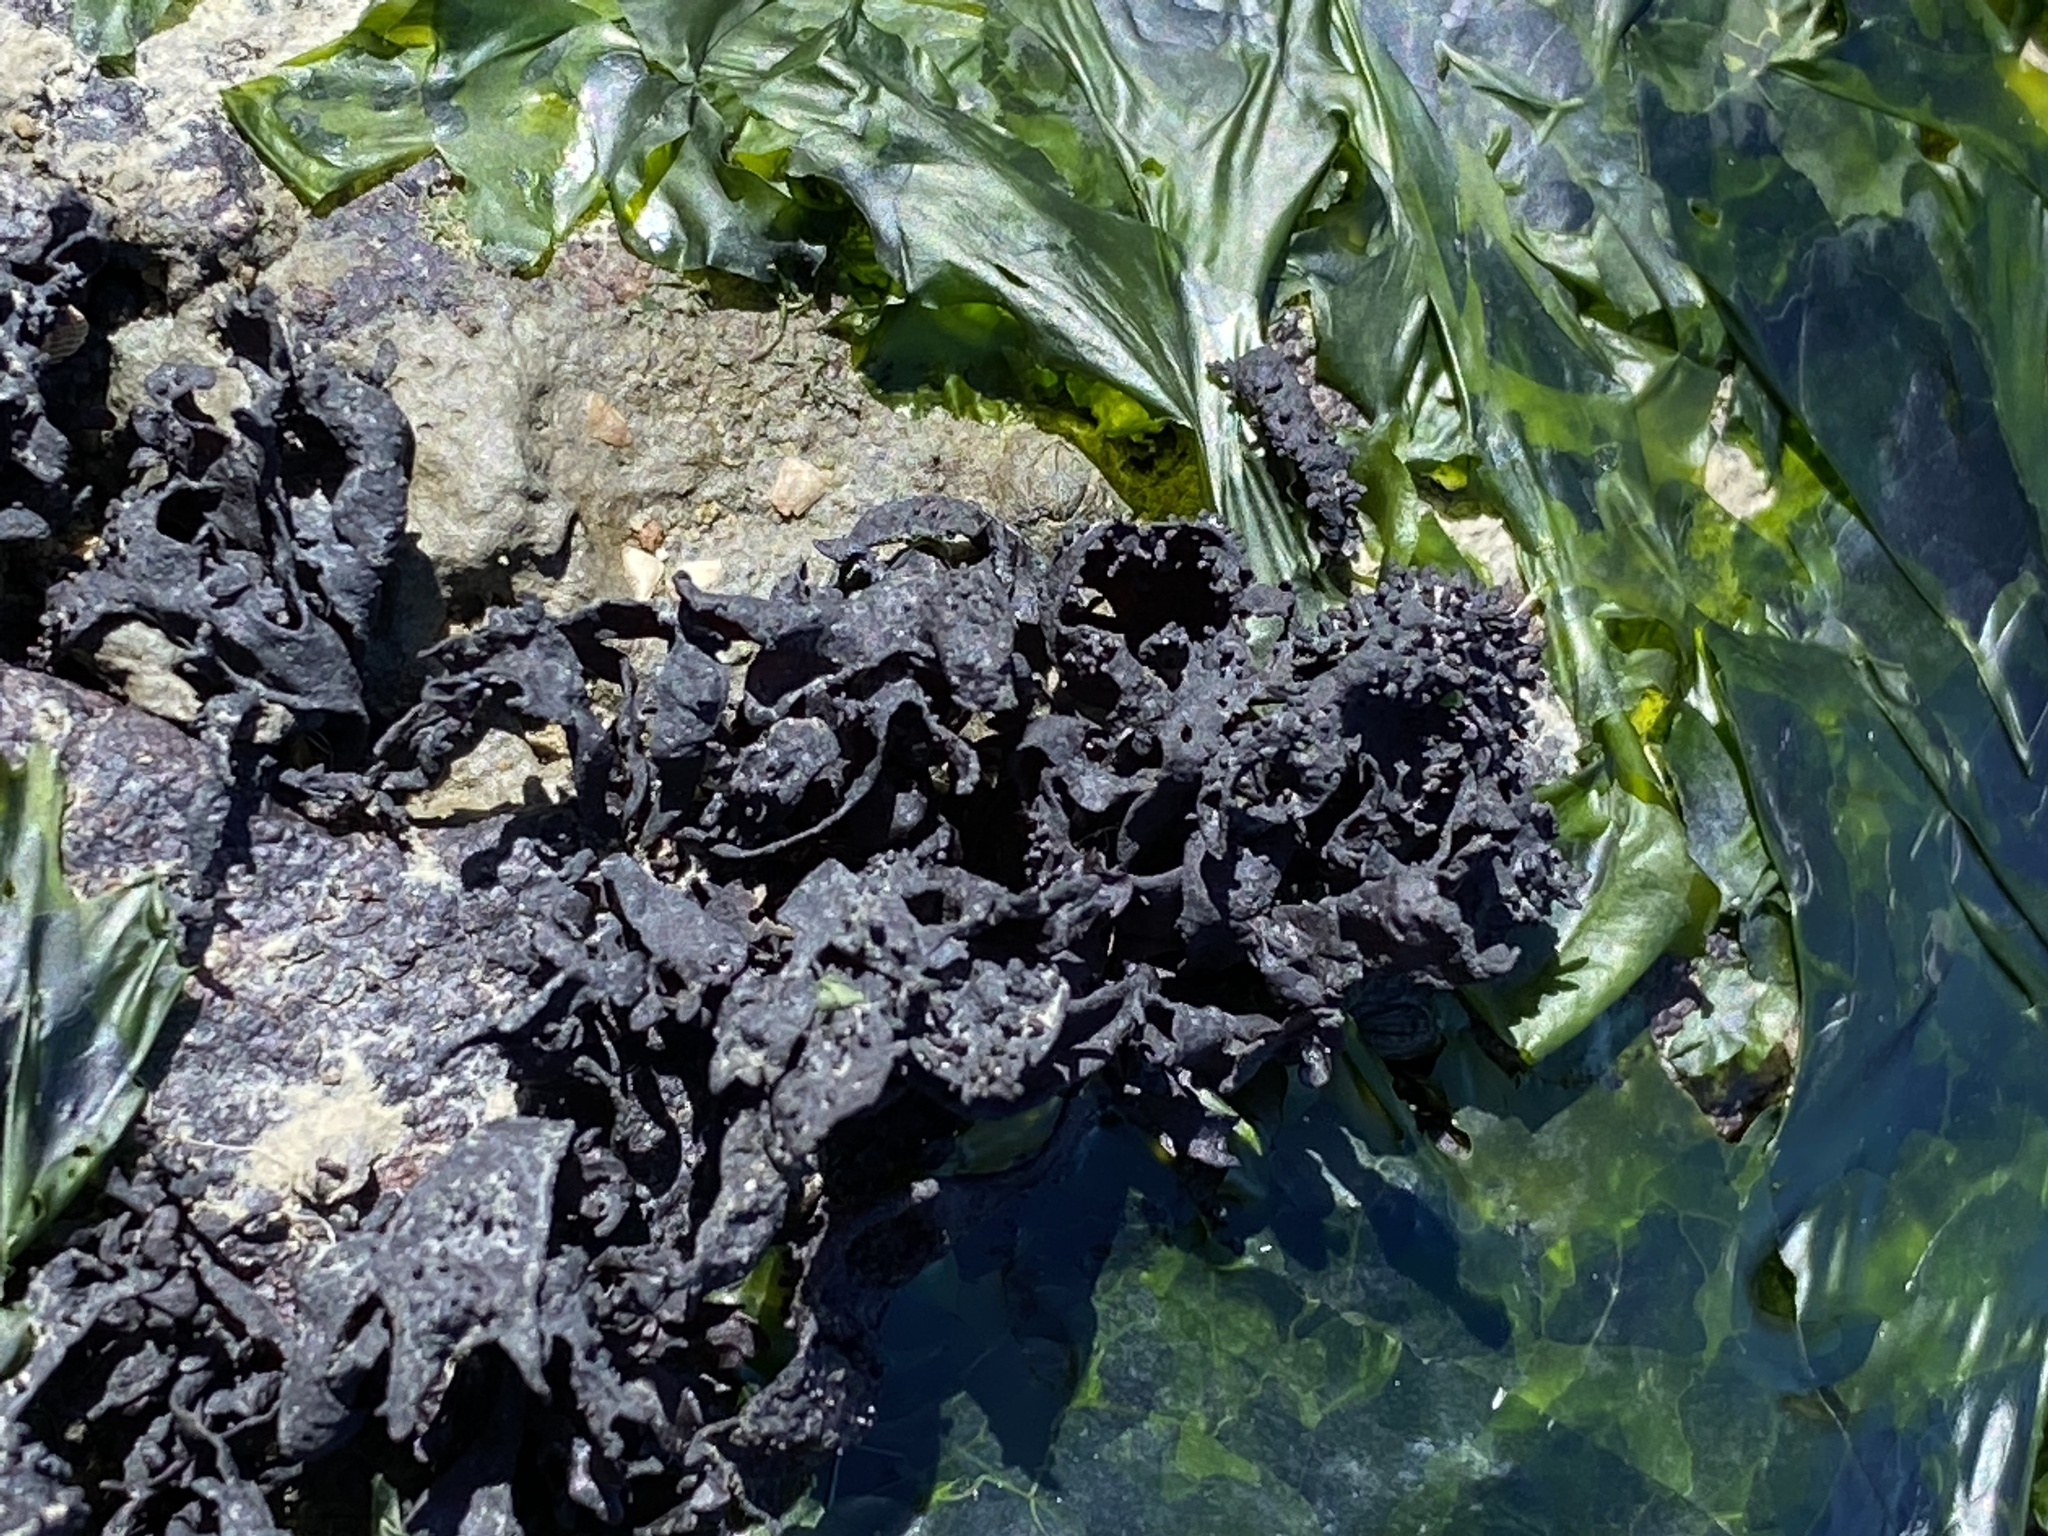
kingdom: Plantae
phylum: Rhodophyta
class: Florideophyceae
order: Gigartinales
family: Phyllophoraceae
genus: Mastocarpus
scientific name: Mastocarpus papillatus
